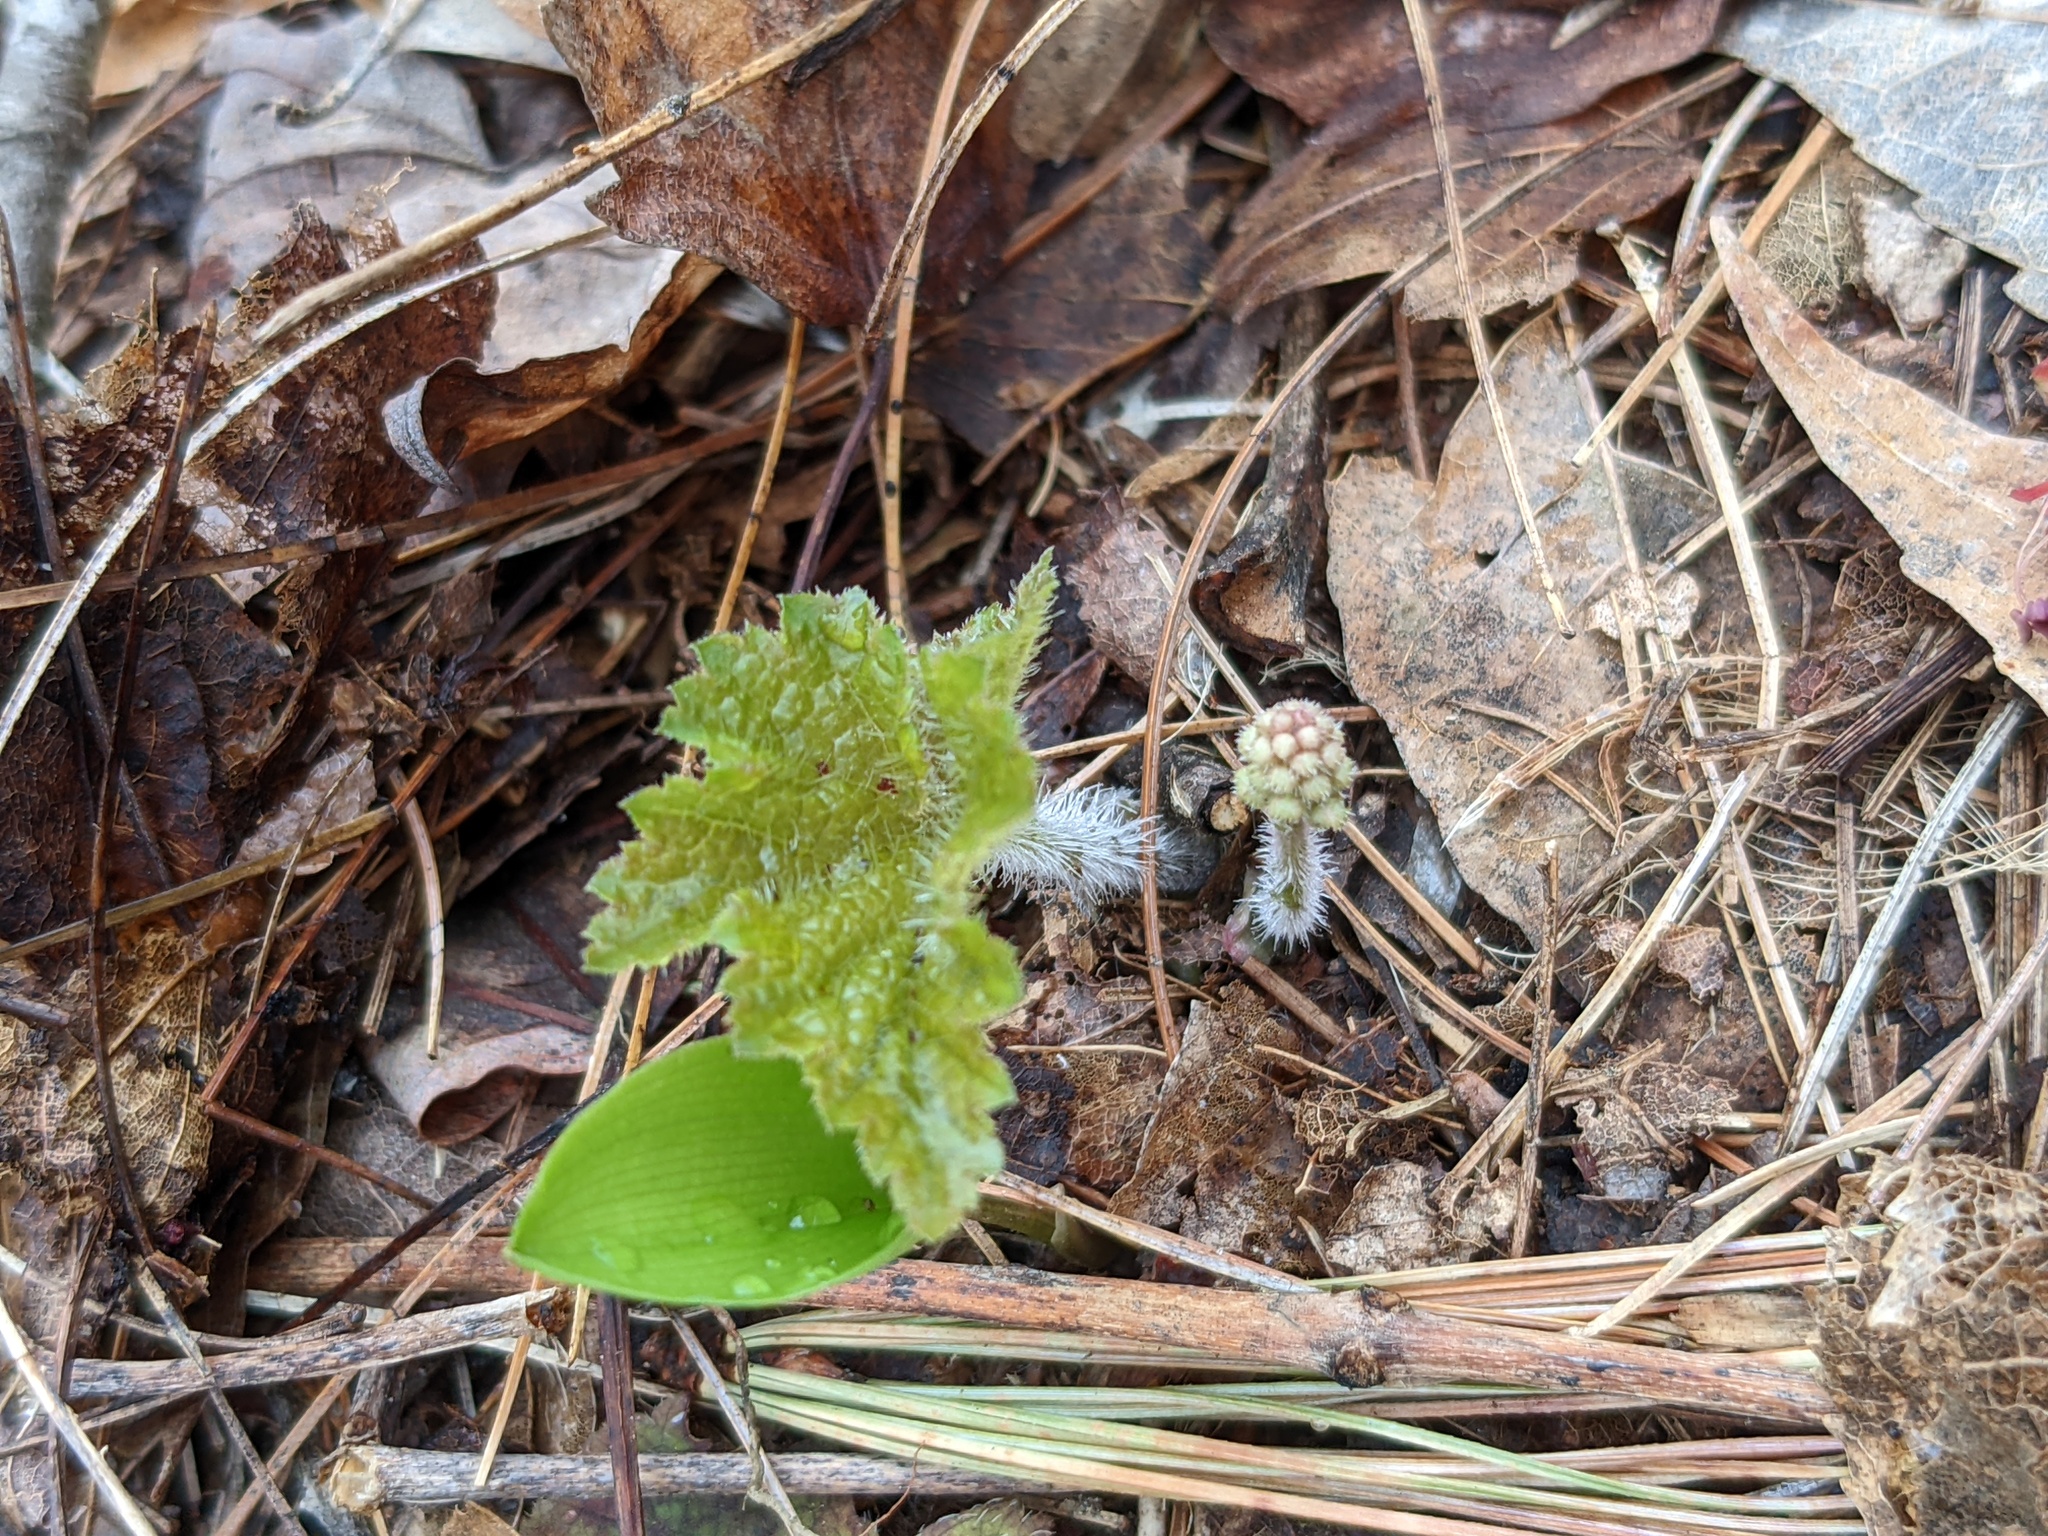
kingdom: Plantae
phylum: Tracheophyta
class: Magnoliopsida
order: Saxifragales
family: Saxifragaceae
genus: Tiarella
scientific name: Tiarella stolonifera
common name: Stoloniferous foamflower
